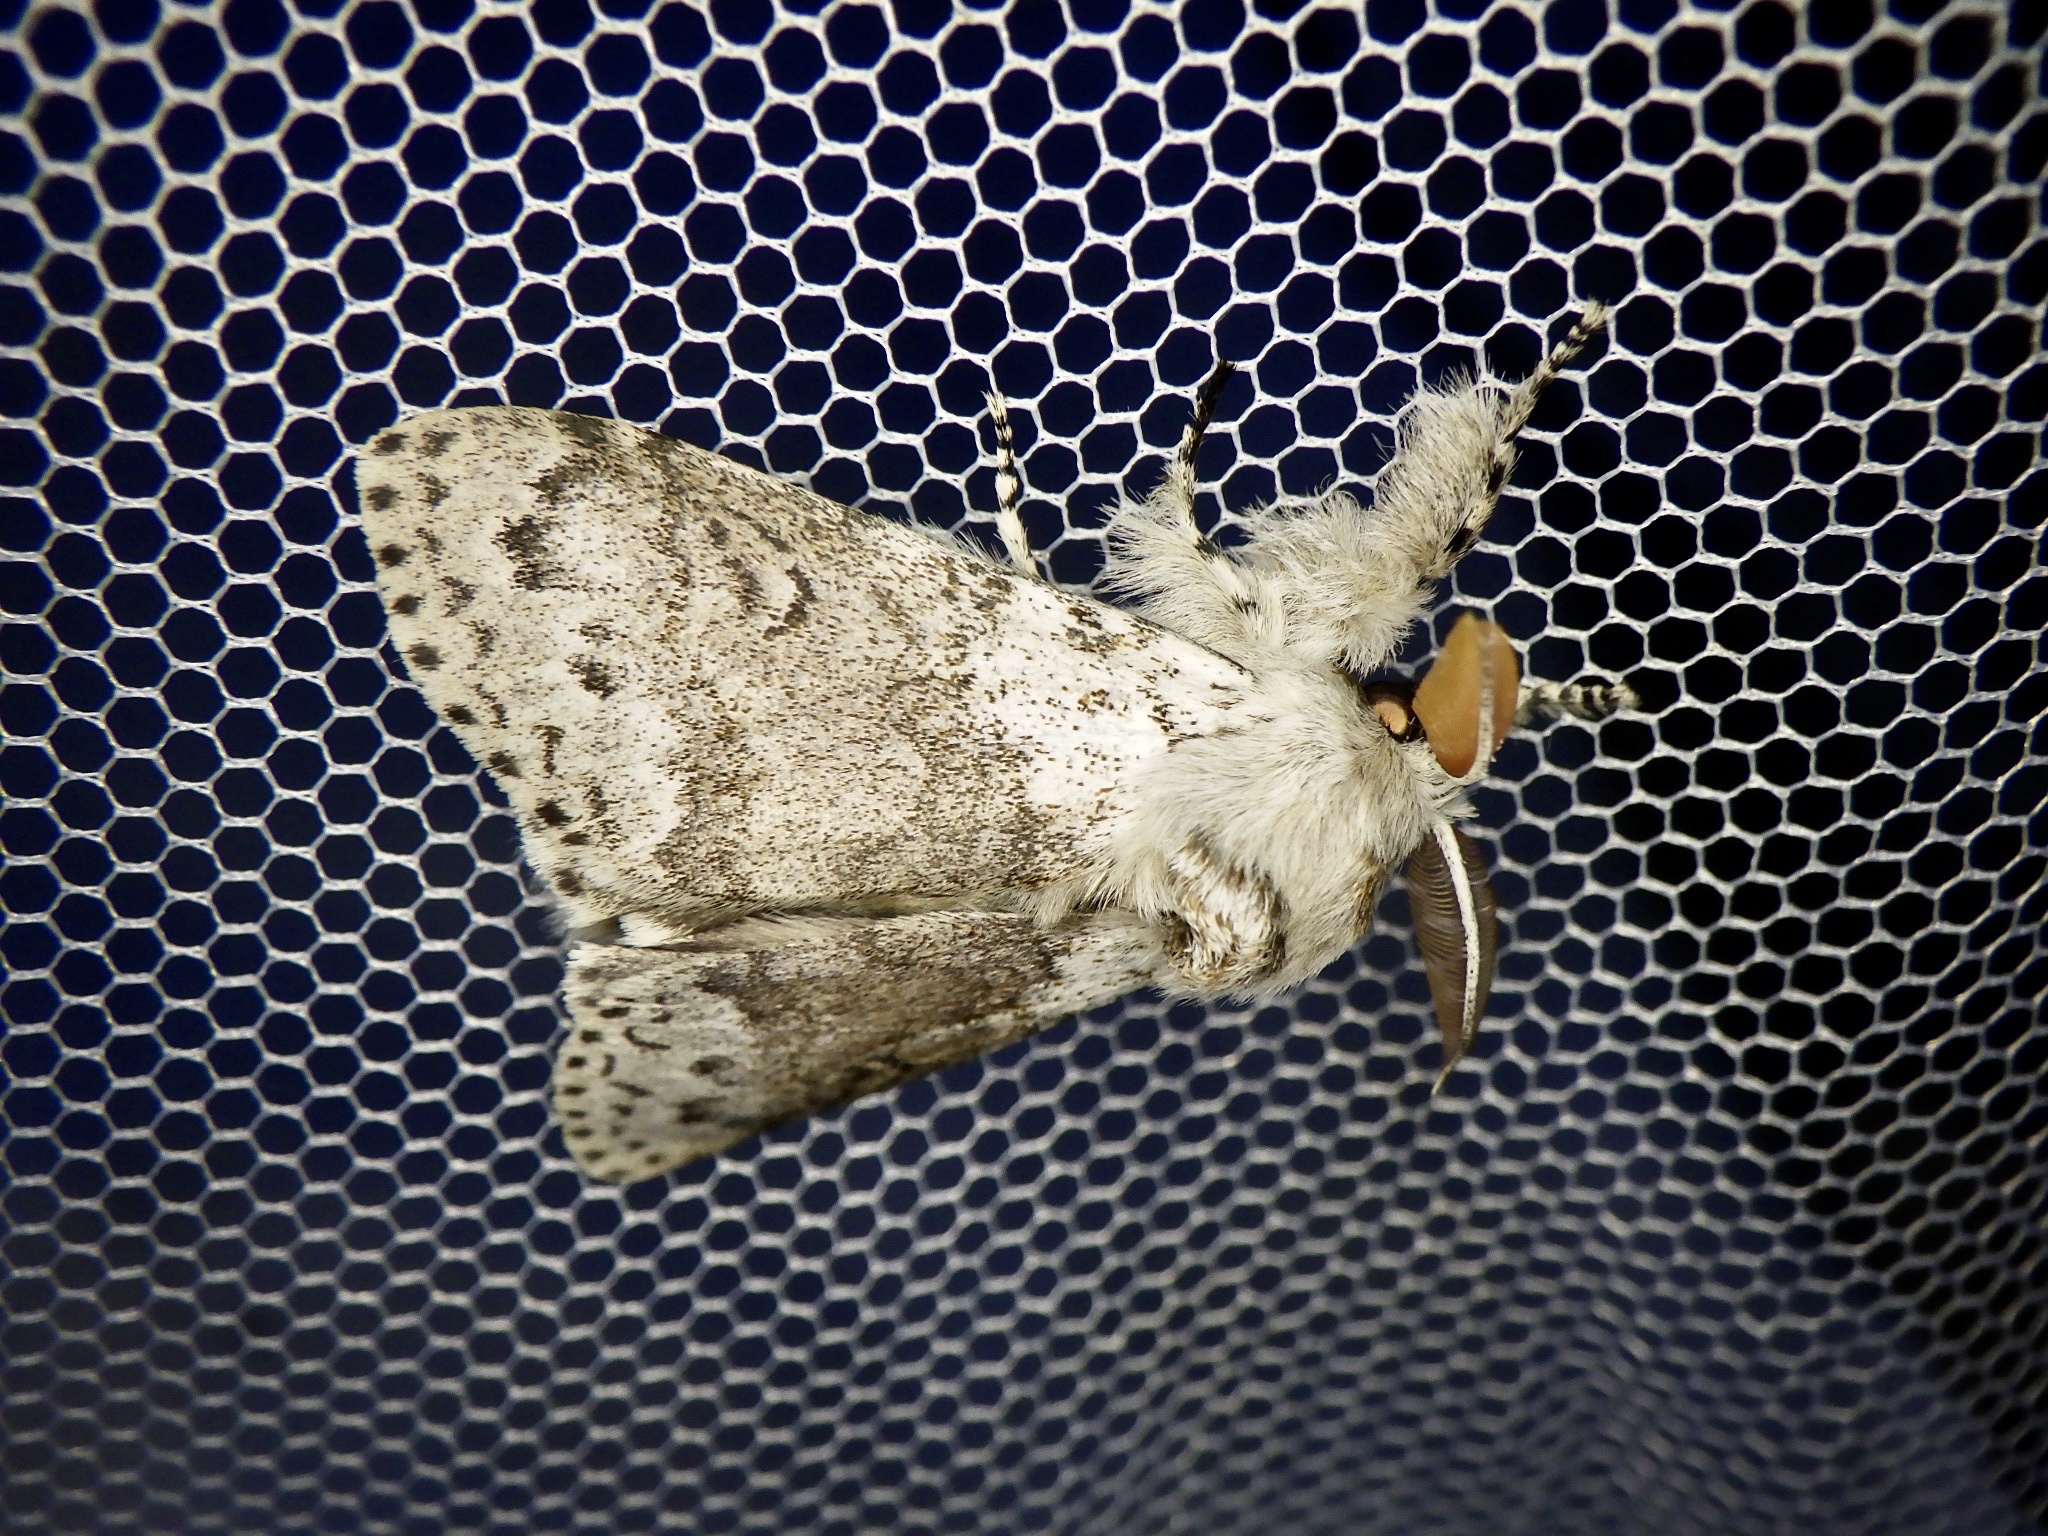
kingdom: Animalia
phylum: Arthropoda
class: Insecta
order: Lepidoptera
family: Erebidae
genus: Calliteara
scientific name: Calliteara
